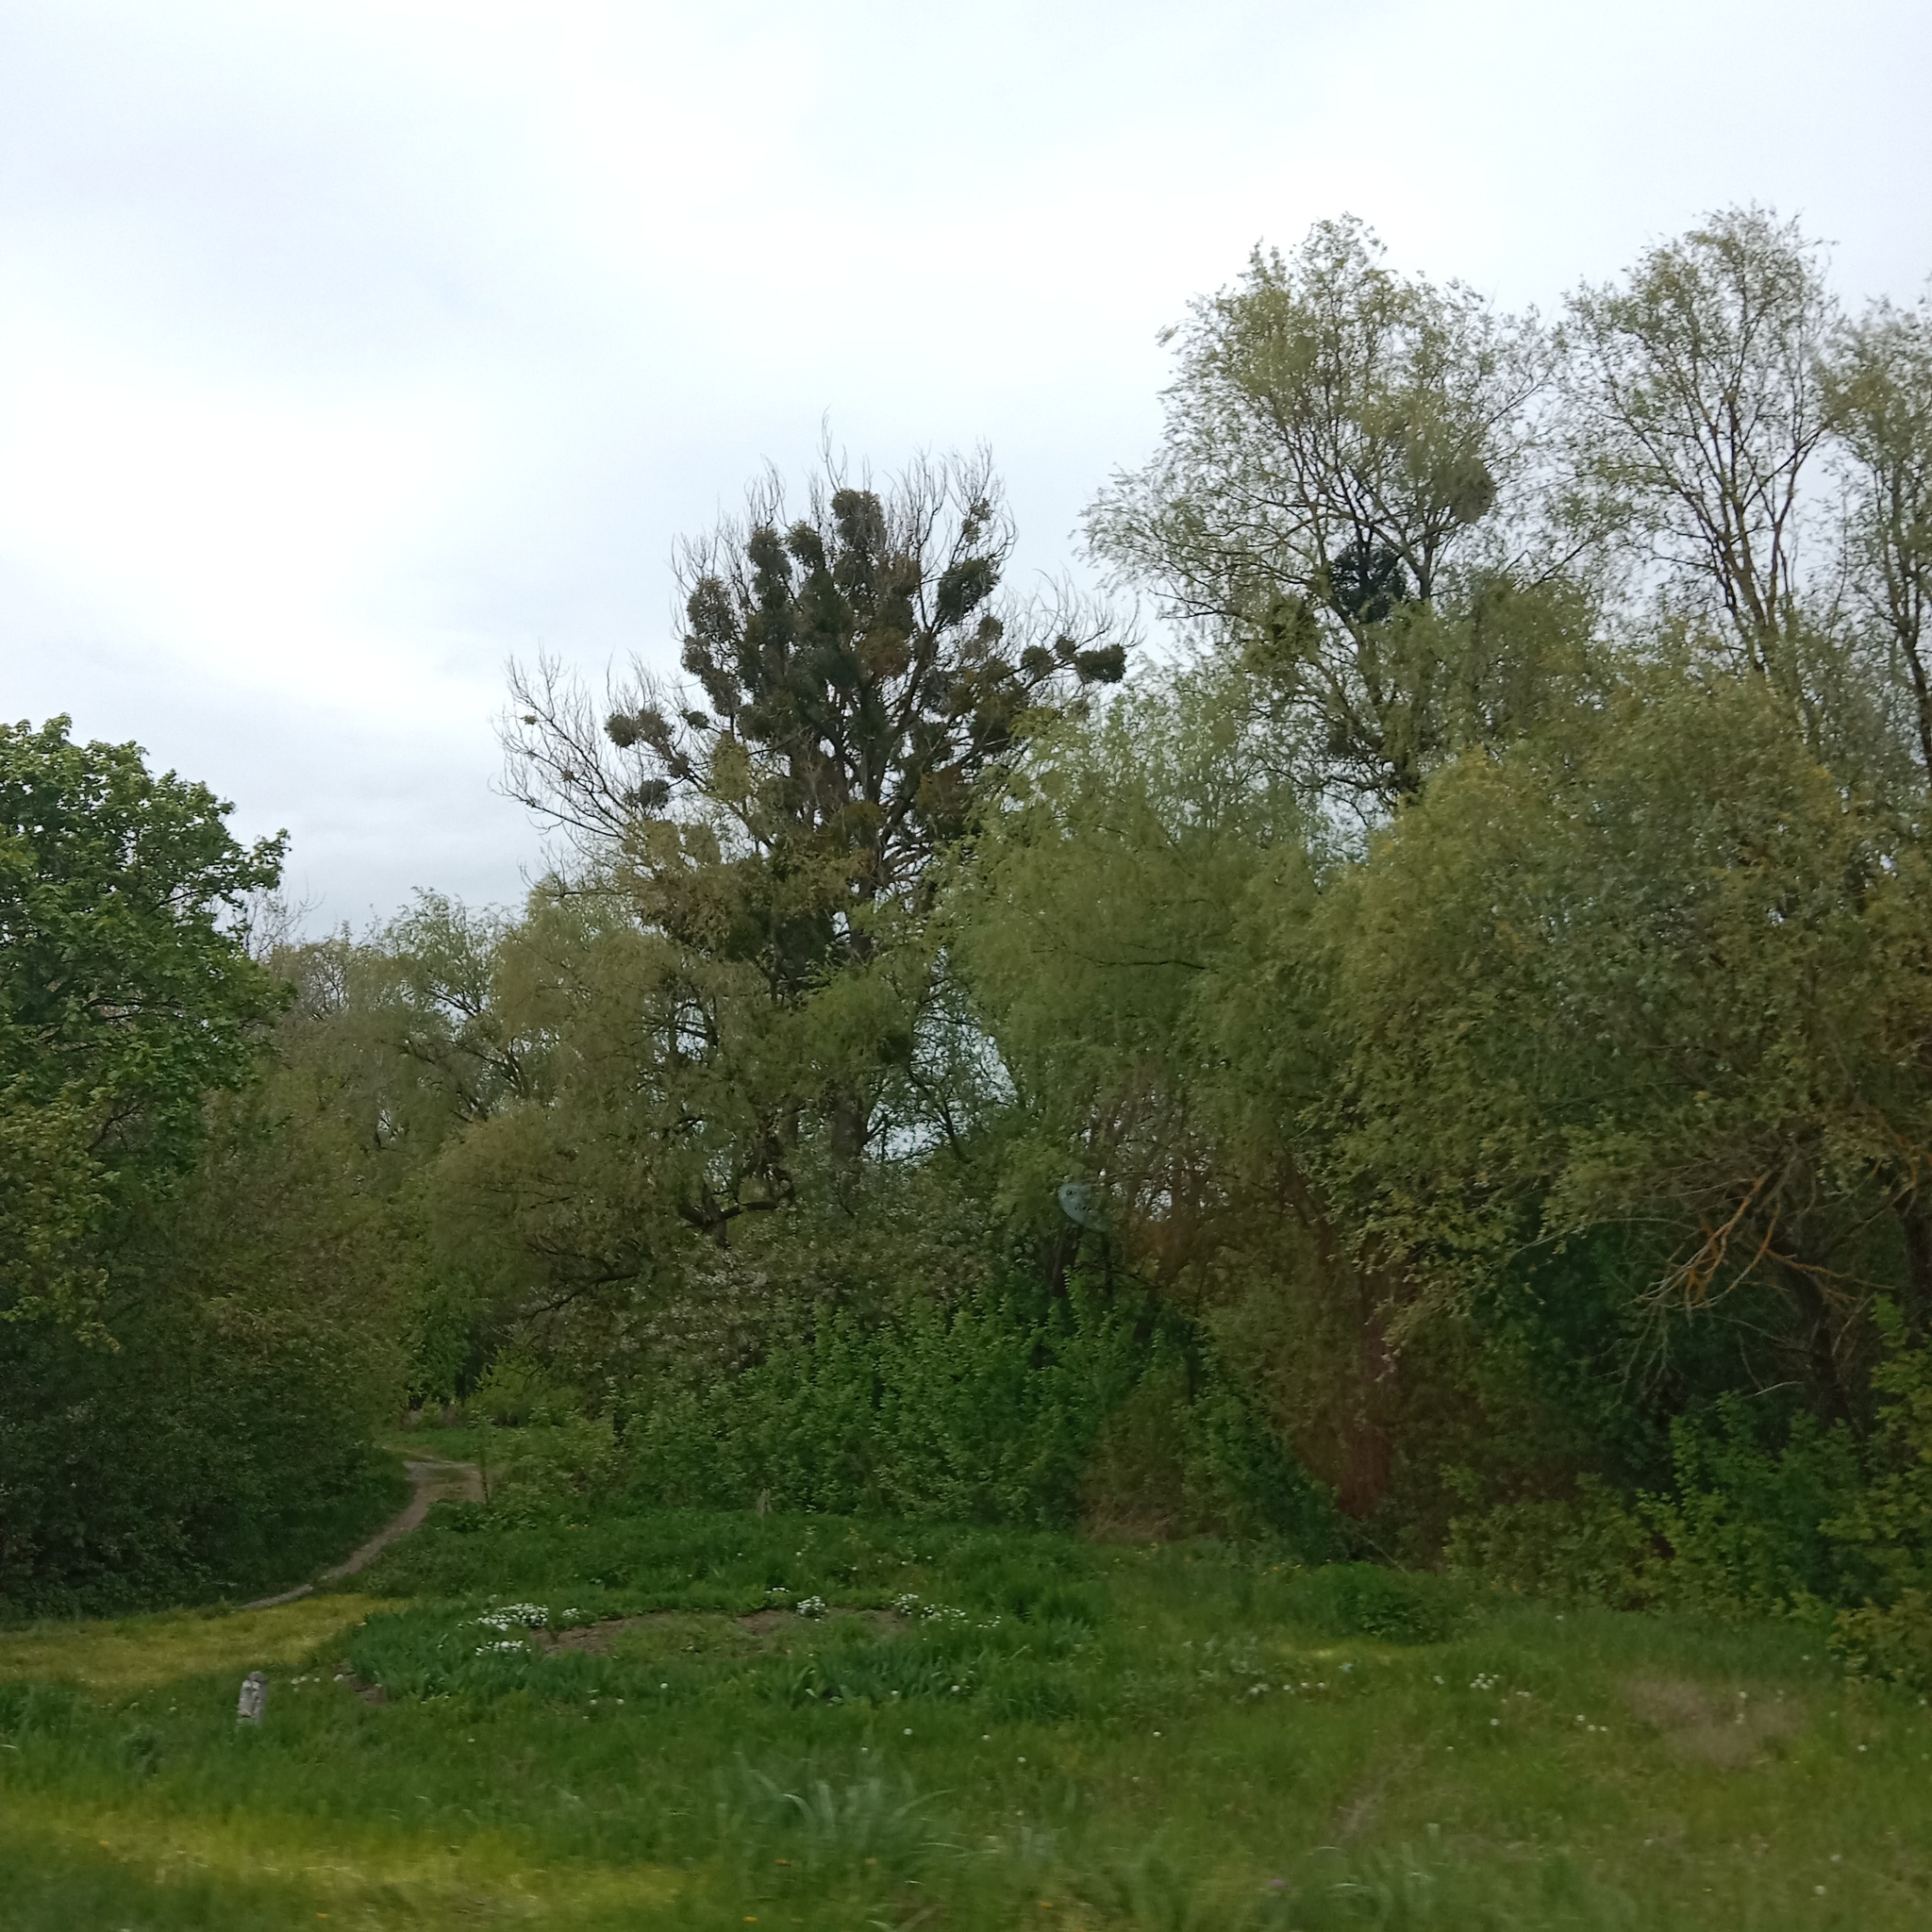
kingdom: Plantae
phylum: Tracheophyta
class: Magnoliopsida
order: Santalales
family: Viscaceae
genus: Viscum
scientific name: Viscum album
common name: Mistletoe
